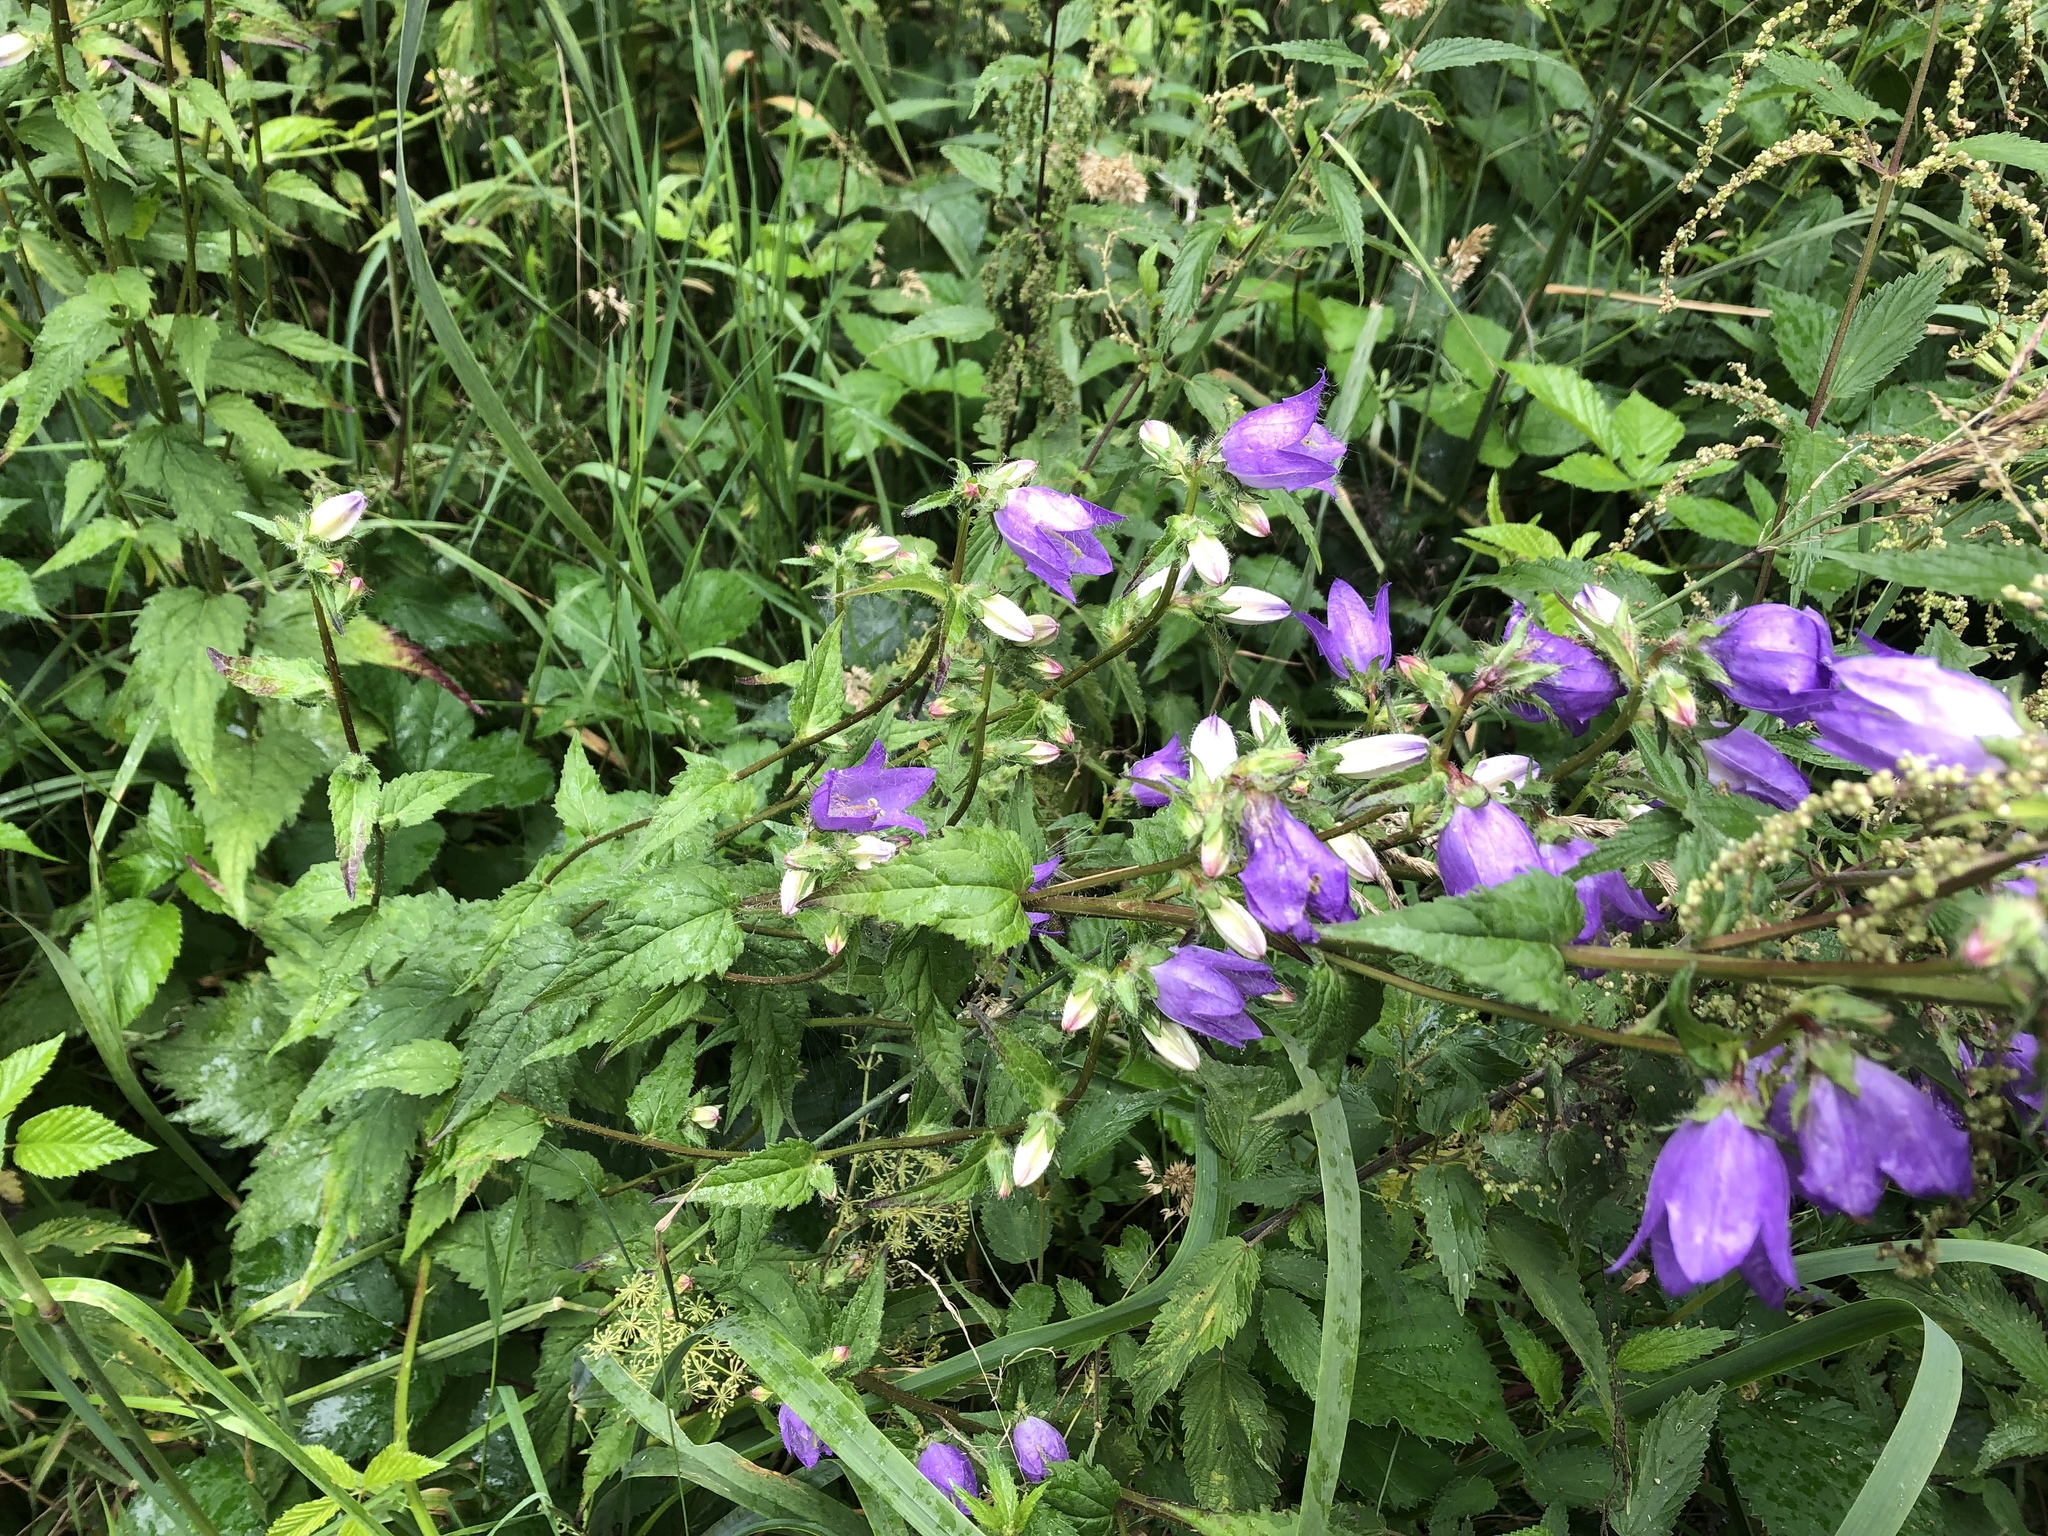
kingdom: Plantae
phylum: Tracheophyta
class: Magnoliopsida
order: Asterales
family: Campanulaceae
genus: Campanula
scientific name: Campanula trachelium
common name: Nettle-leaved bellflower
